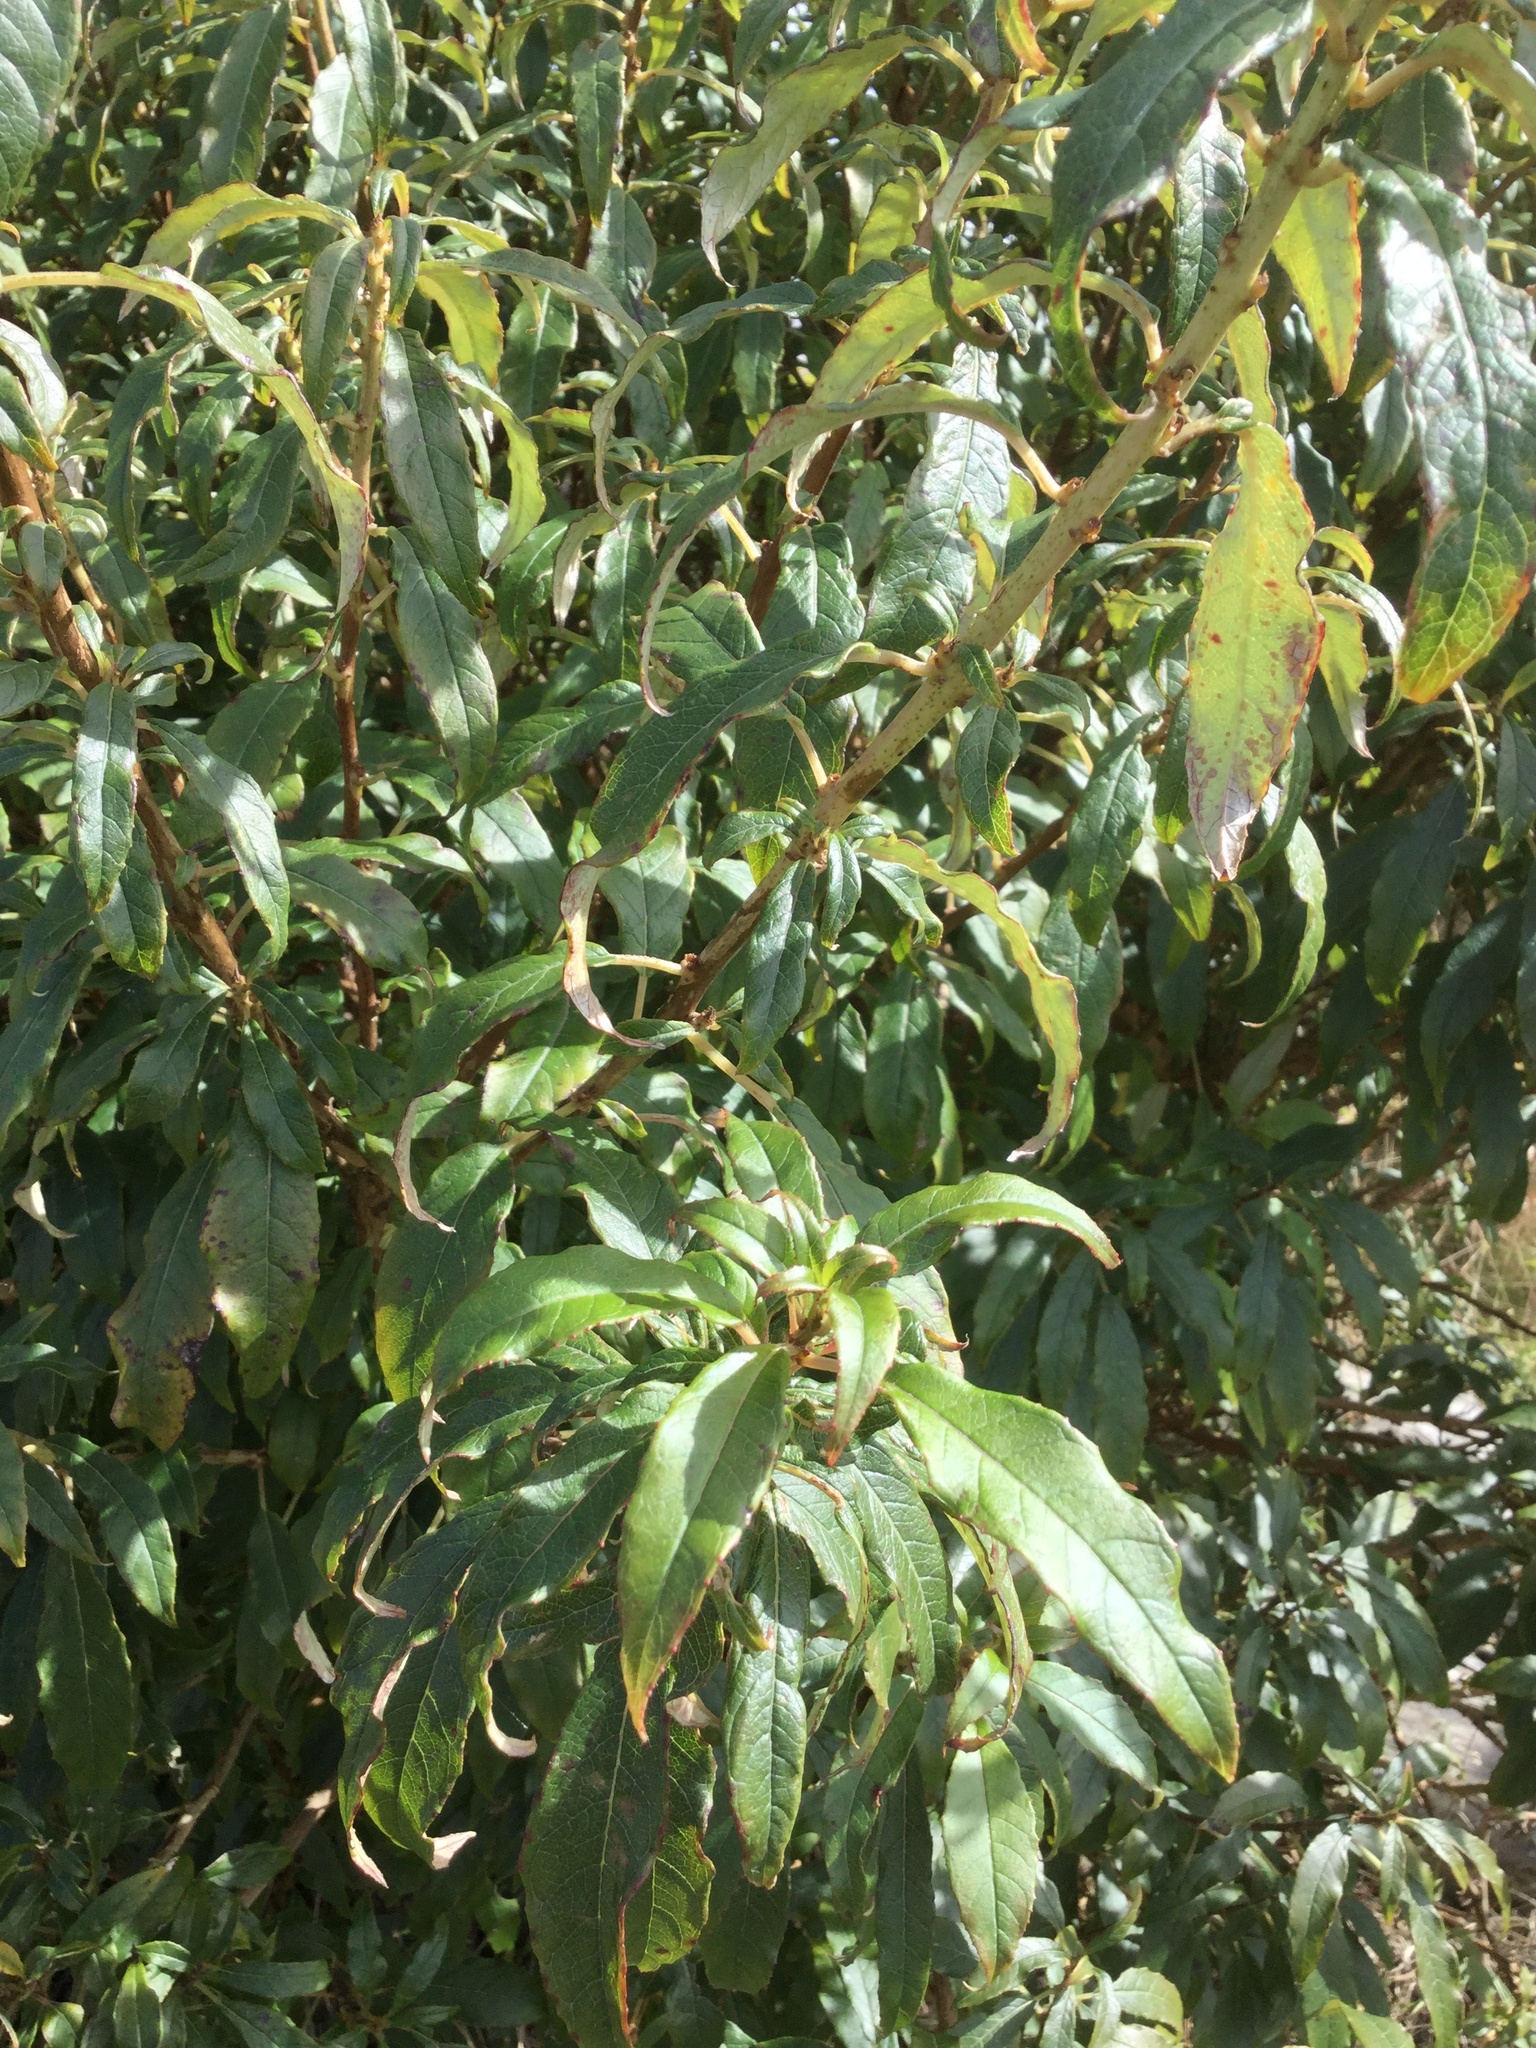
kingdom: Plantae
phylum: Tracheophyta
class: Magnoliopsida
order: Myrtales
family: Onagraceae
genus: Fuchsia
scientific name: Fuchsia excorticata
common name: Tree fuchsia
